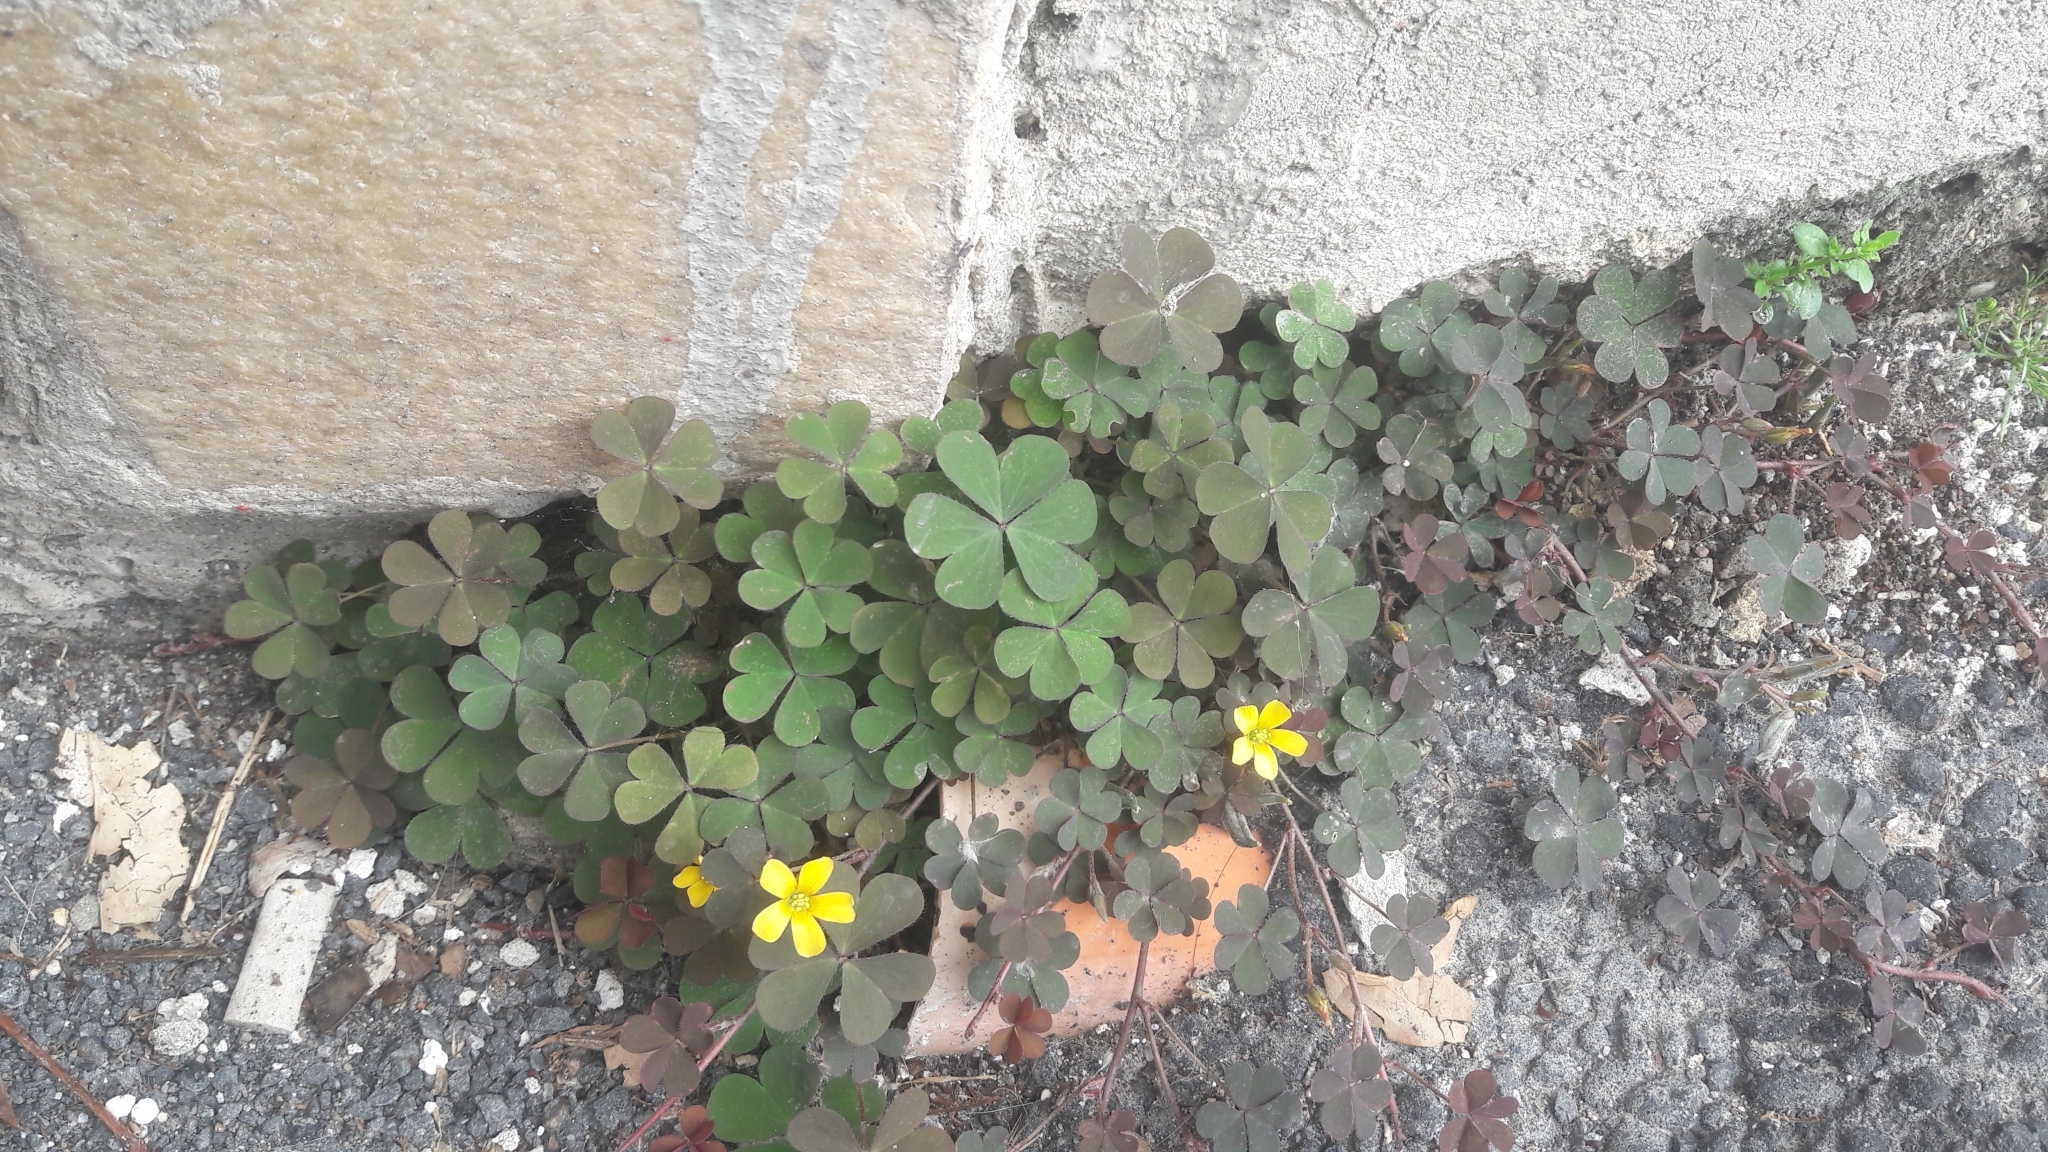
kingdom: Plantae
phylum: Tracheophyta
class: Magnoliopsida
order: Oxalidales
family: Oxalidaceae
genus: Oxalis
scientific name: Oxalis corniculata
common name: Procumbent yellow-sorrel
